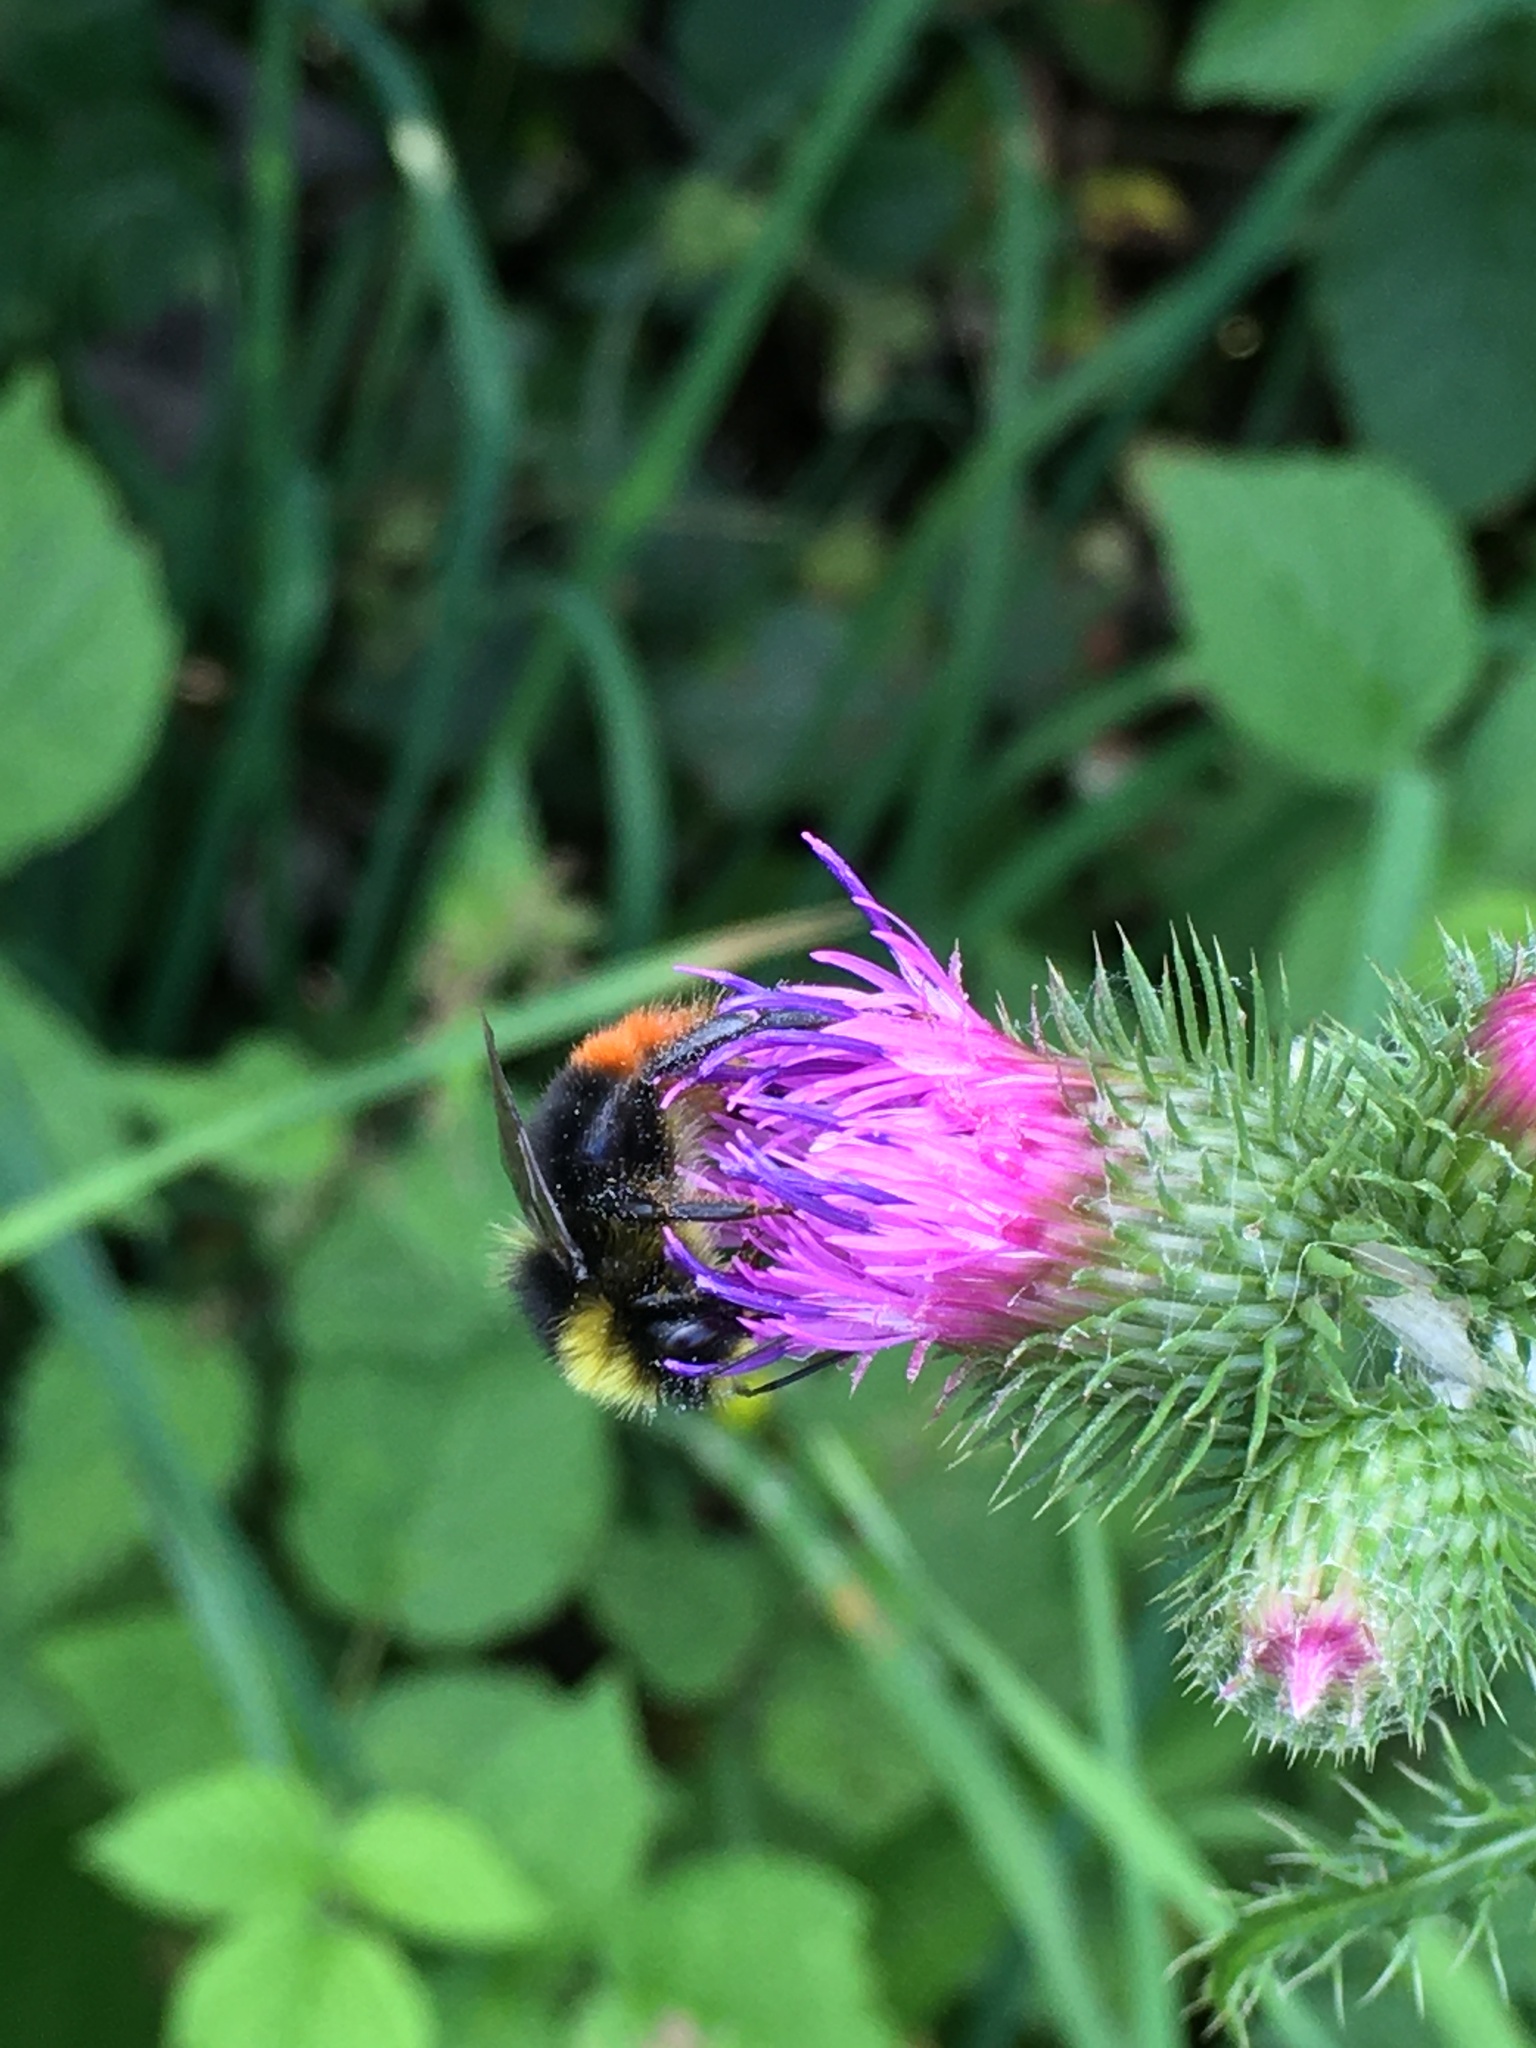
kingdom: Animalia
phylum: Arthropoda
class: Insecta
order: Hymenoptera
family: Apidae
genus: Bombus
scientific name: Bombus lapidarius
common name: Large red-tailed humble-bee
